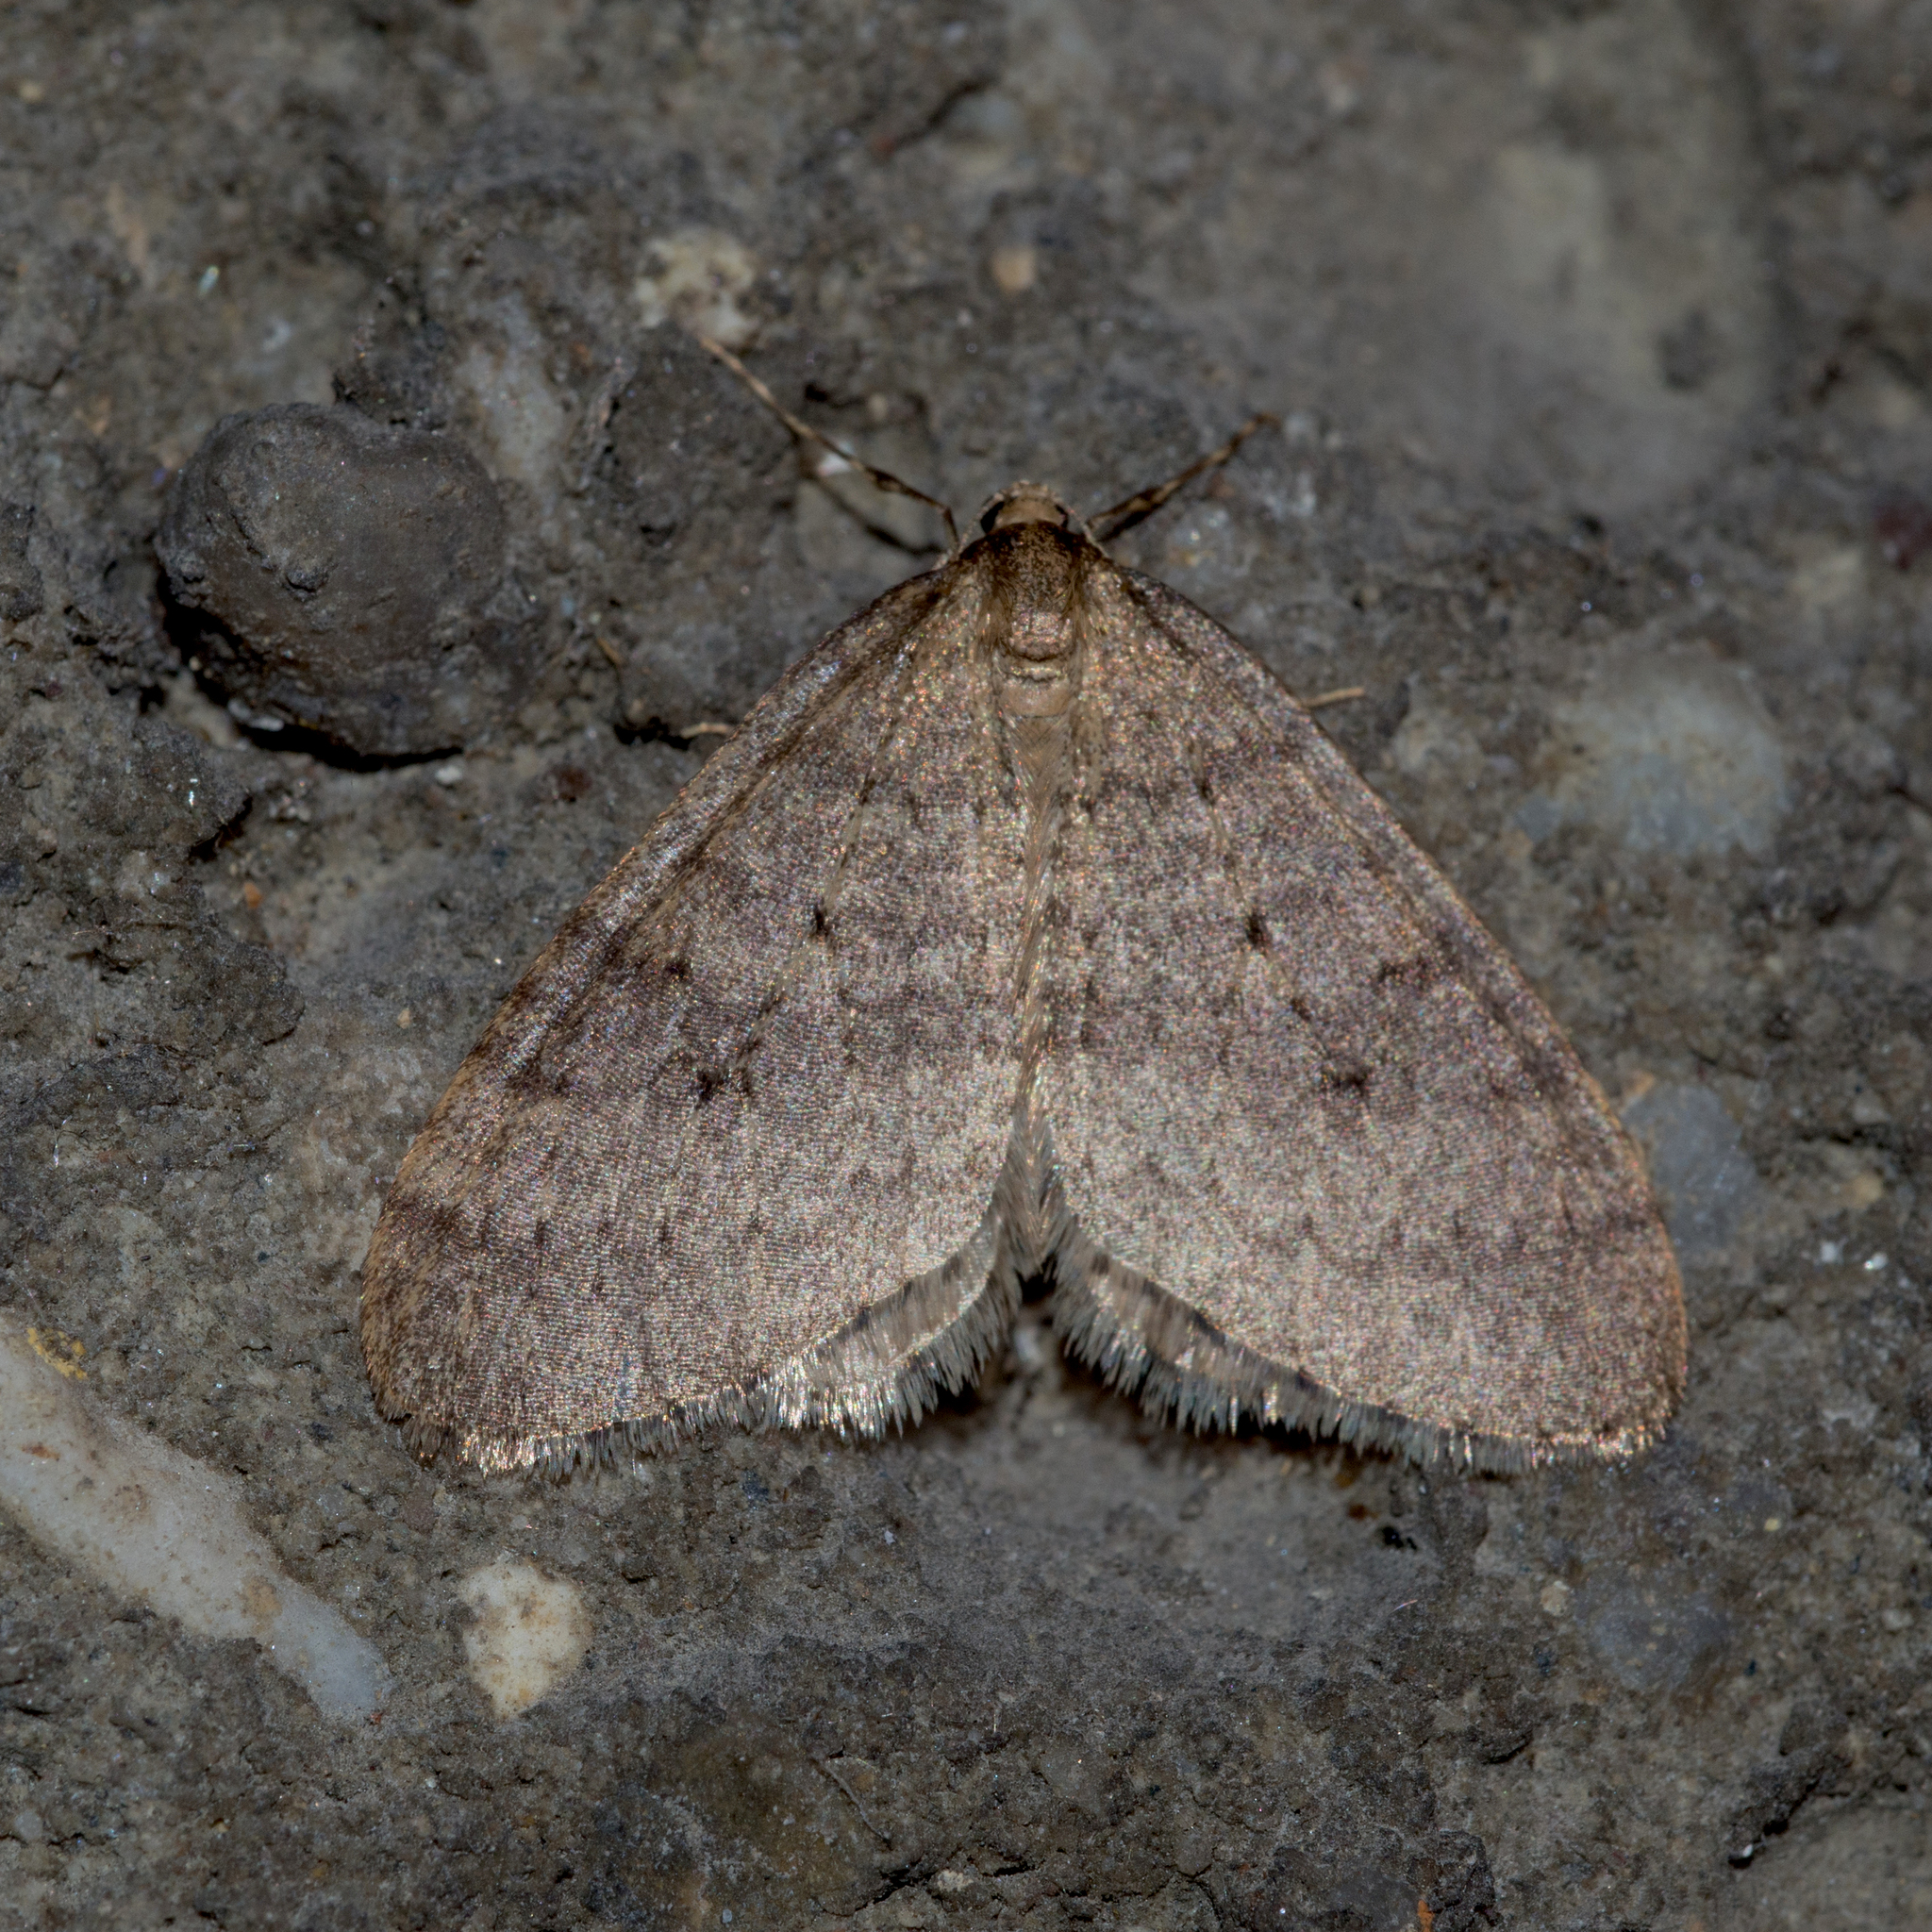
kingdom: Animalia
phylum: Arthropoda
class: Insecta
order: Lepidoptera
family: Geometridae
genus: Operophtera
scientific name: Operophtera brumata
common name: Winter moth
